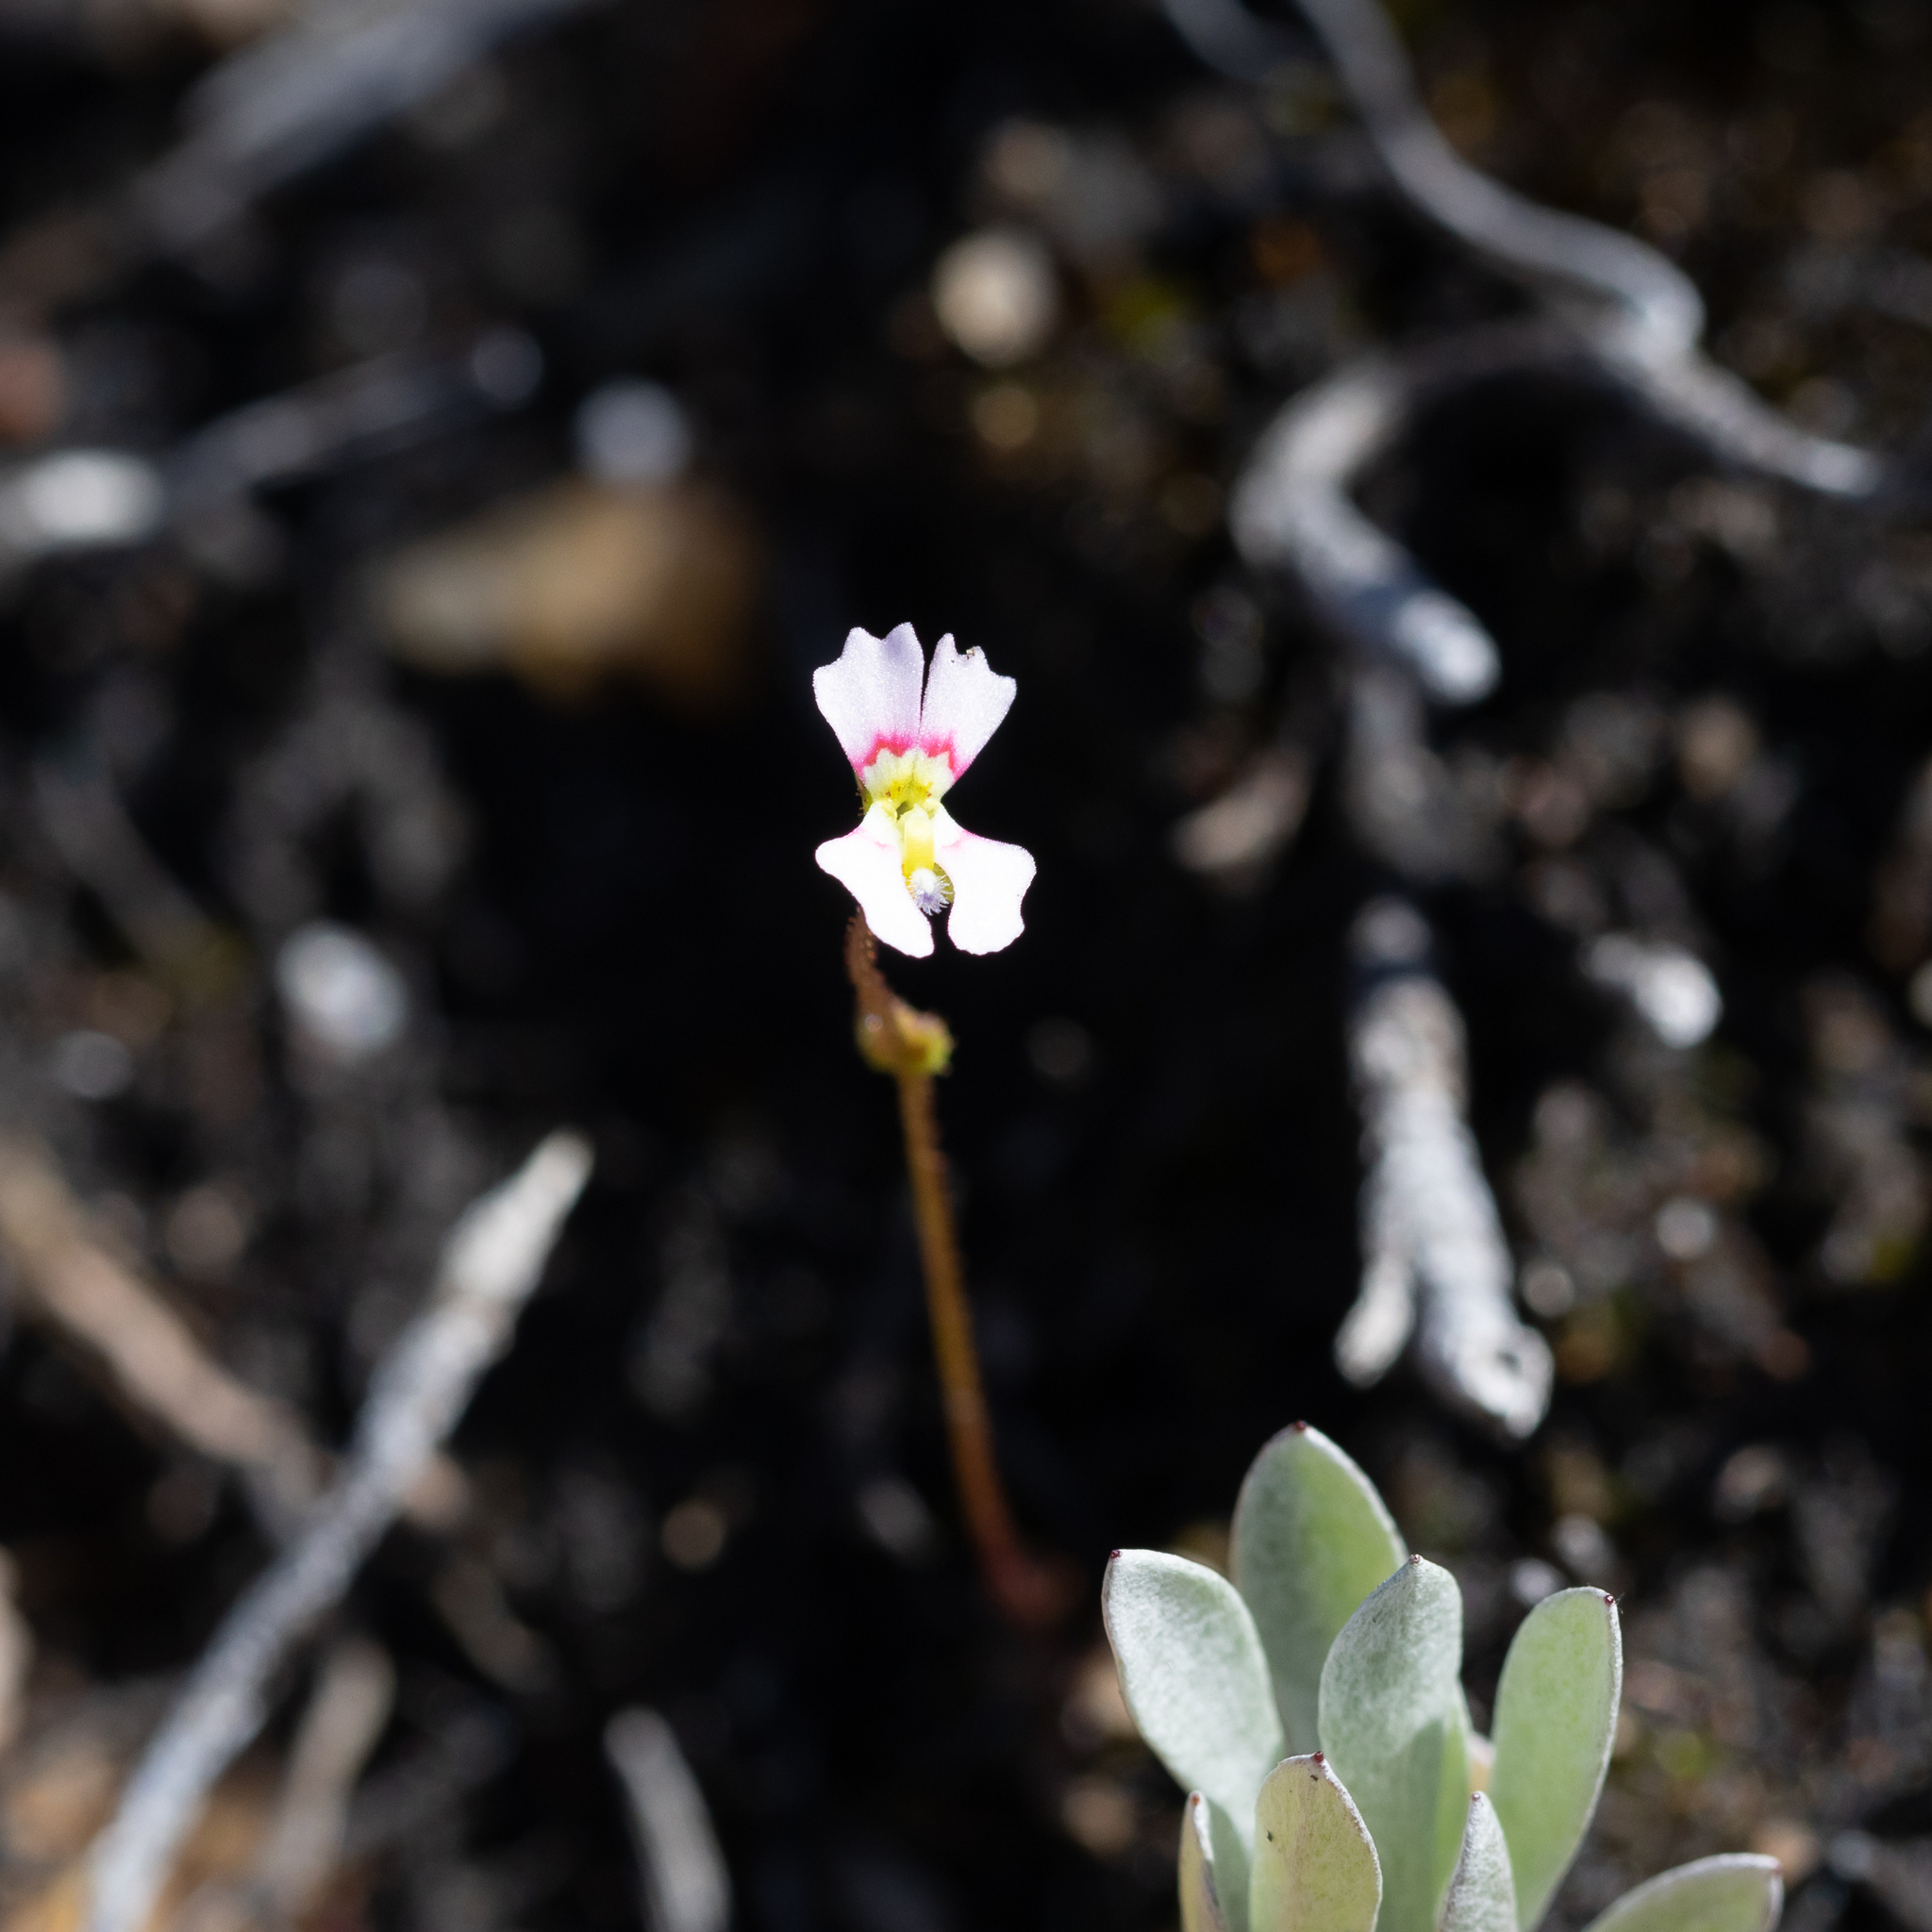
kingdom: Plantae
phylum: Tracheophyta
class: Magnoliopsida
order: Asterales
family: Stylidiaceae
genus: Stylidium
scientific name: Stylidium calcaratum
